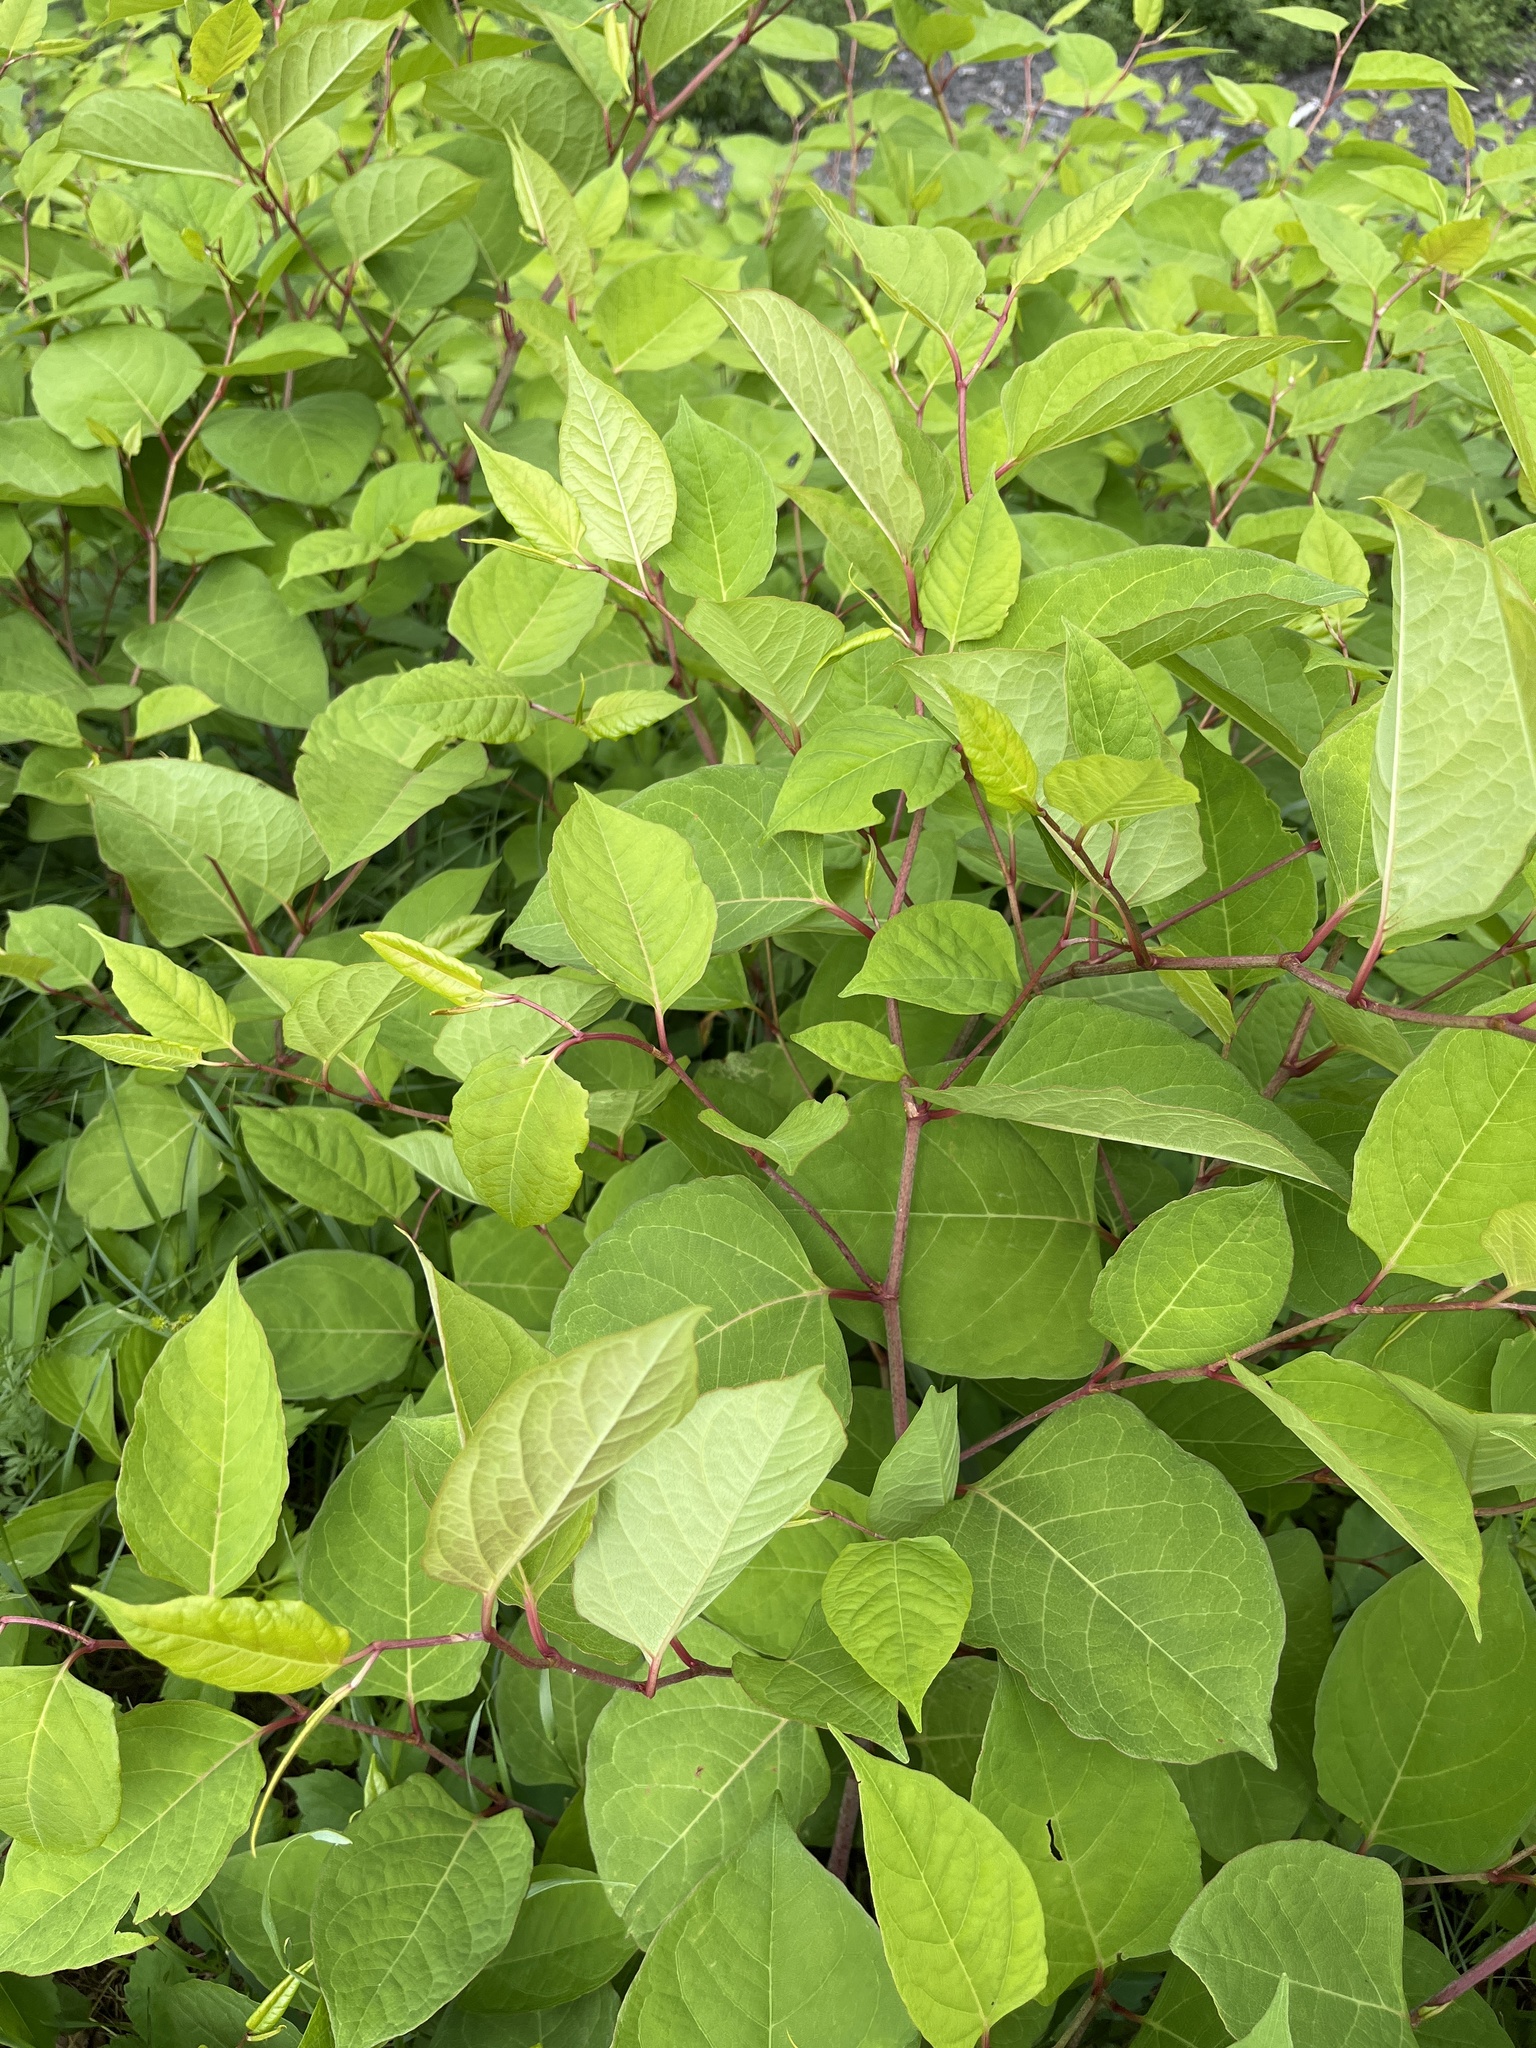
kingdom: Plantae
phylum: Tracheophyta
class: Magnoliopsida
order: Caryophyllales
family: Polygonaceae
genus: Reynoutria
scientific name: Reynoutria japonica
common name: Japanese knotweed
